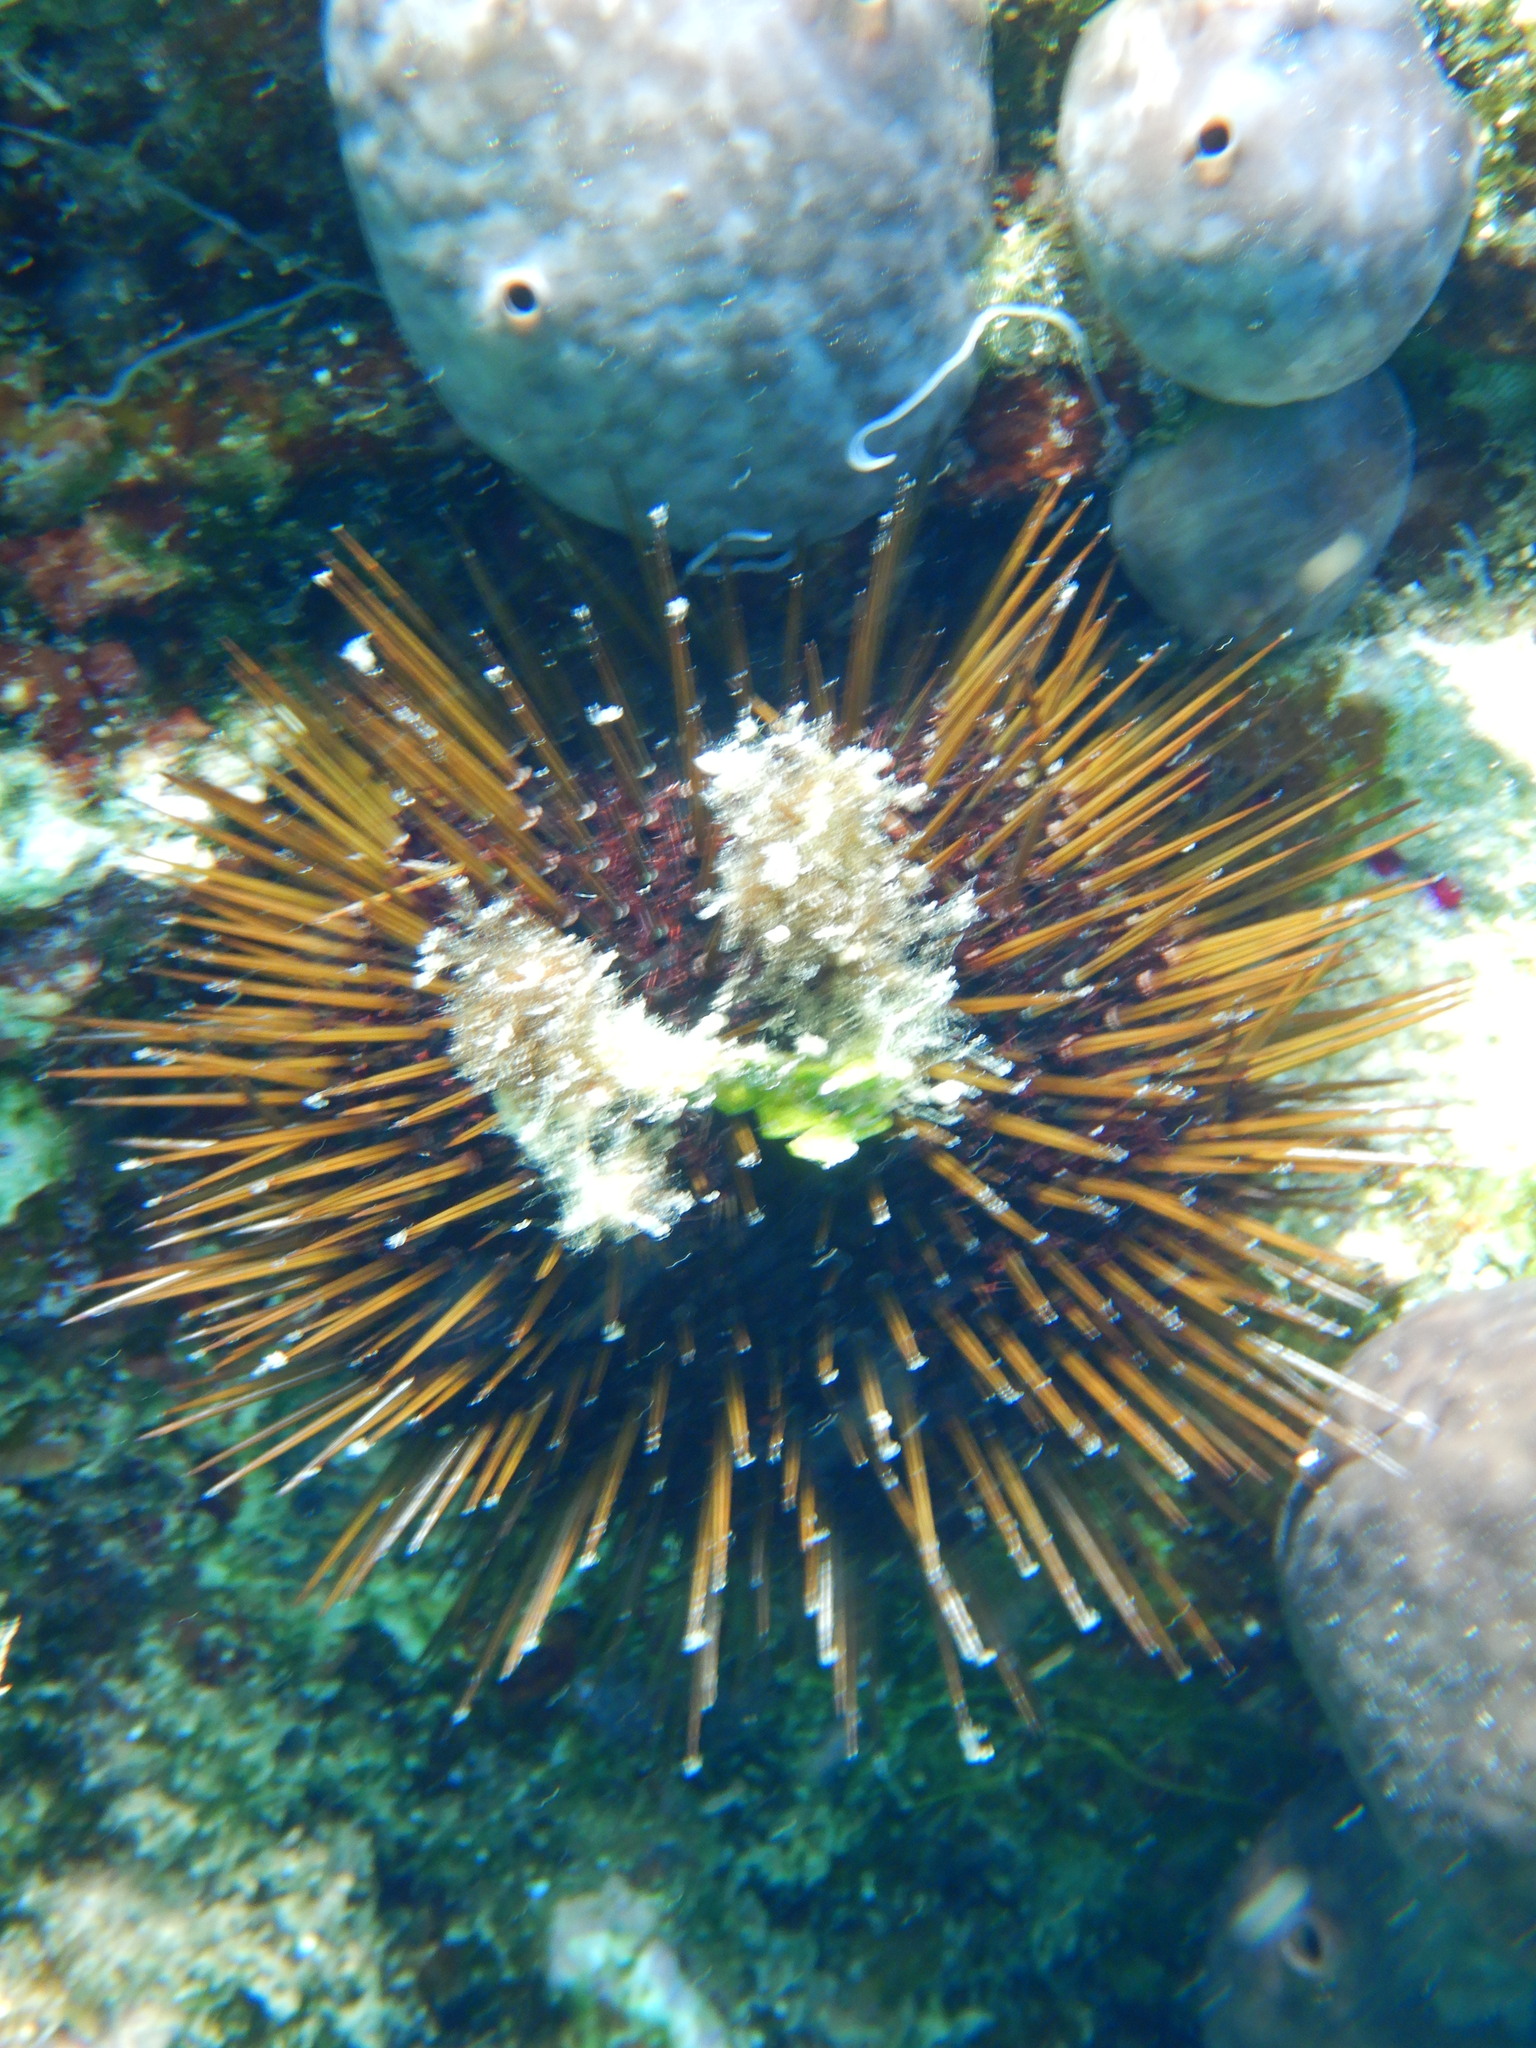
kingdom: Animalia
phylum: Echinodermata
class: Echinoidea
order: Camarodonta
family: Parechinidae
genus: Paracentrotus
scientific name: Paracentrotus lividus
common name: Purple sea urchin
